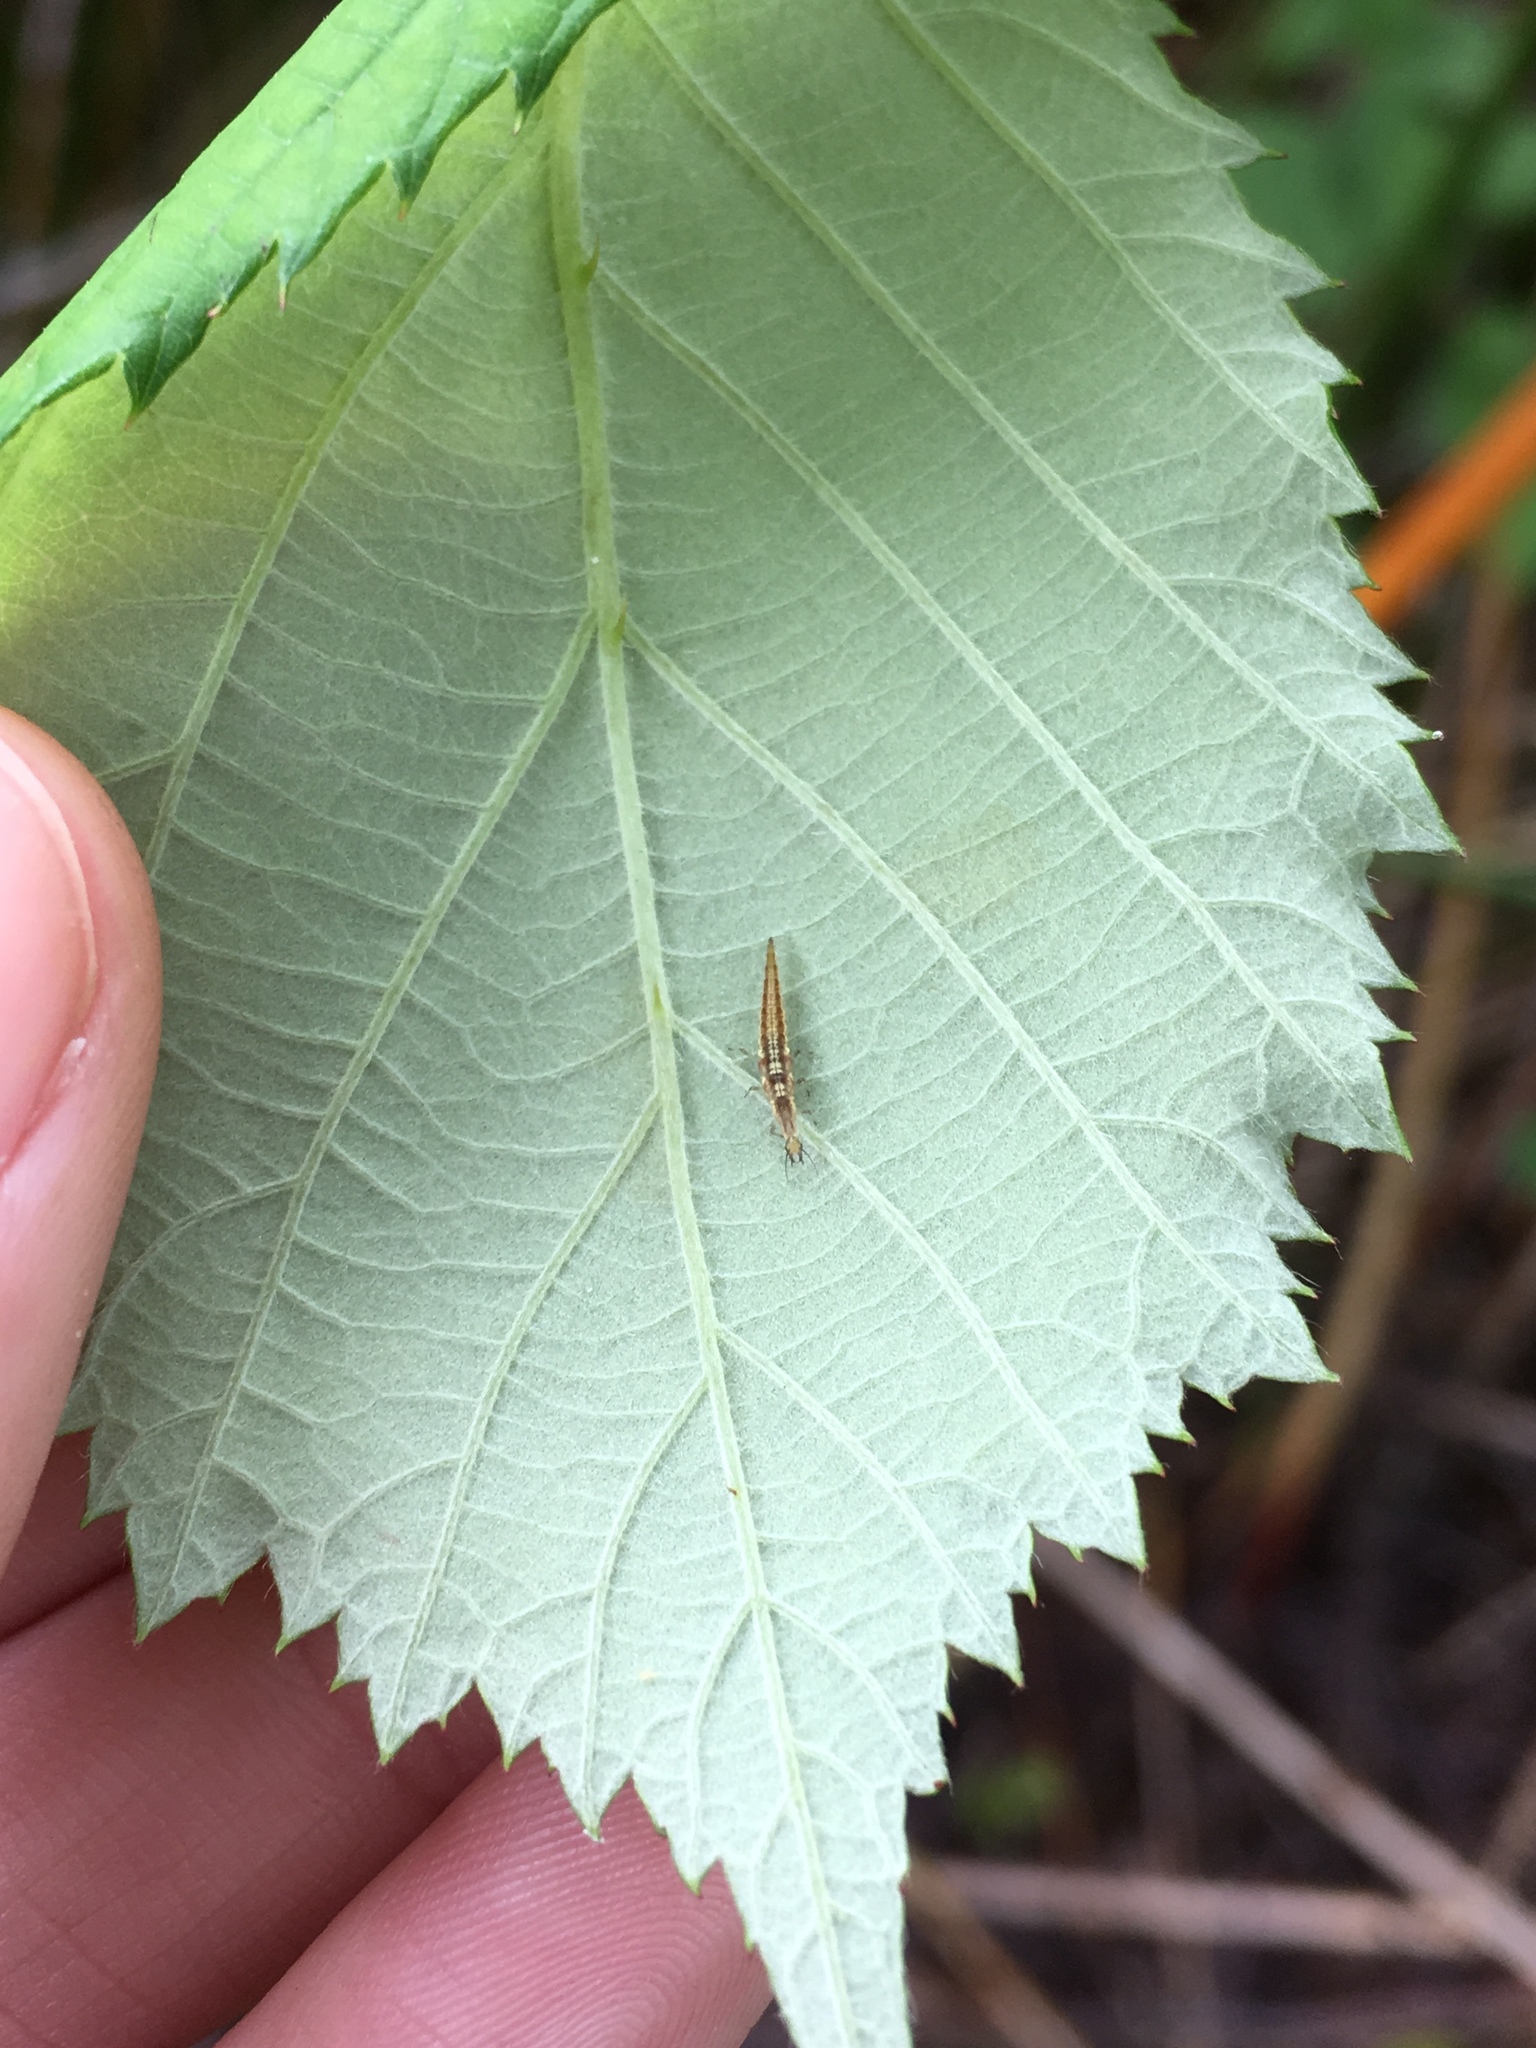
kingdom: Animalia
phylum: Arthropoda
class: Insecta
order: Neuroptera
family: Hemerobiidae
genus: Micromus
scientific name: Micromus tasmaniae
